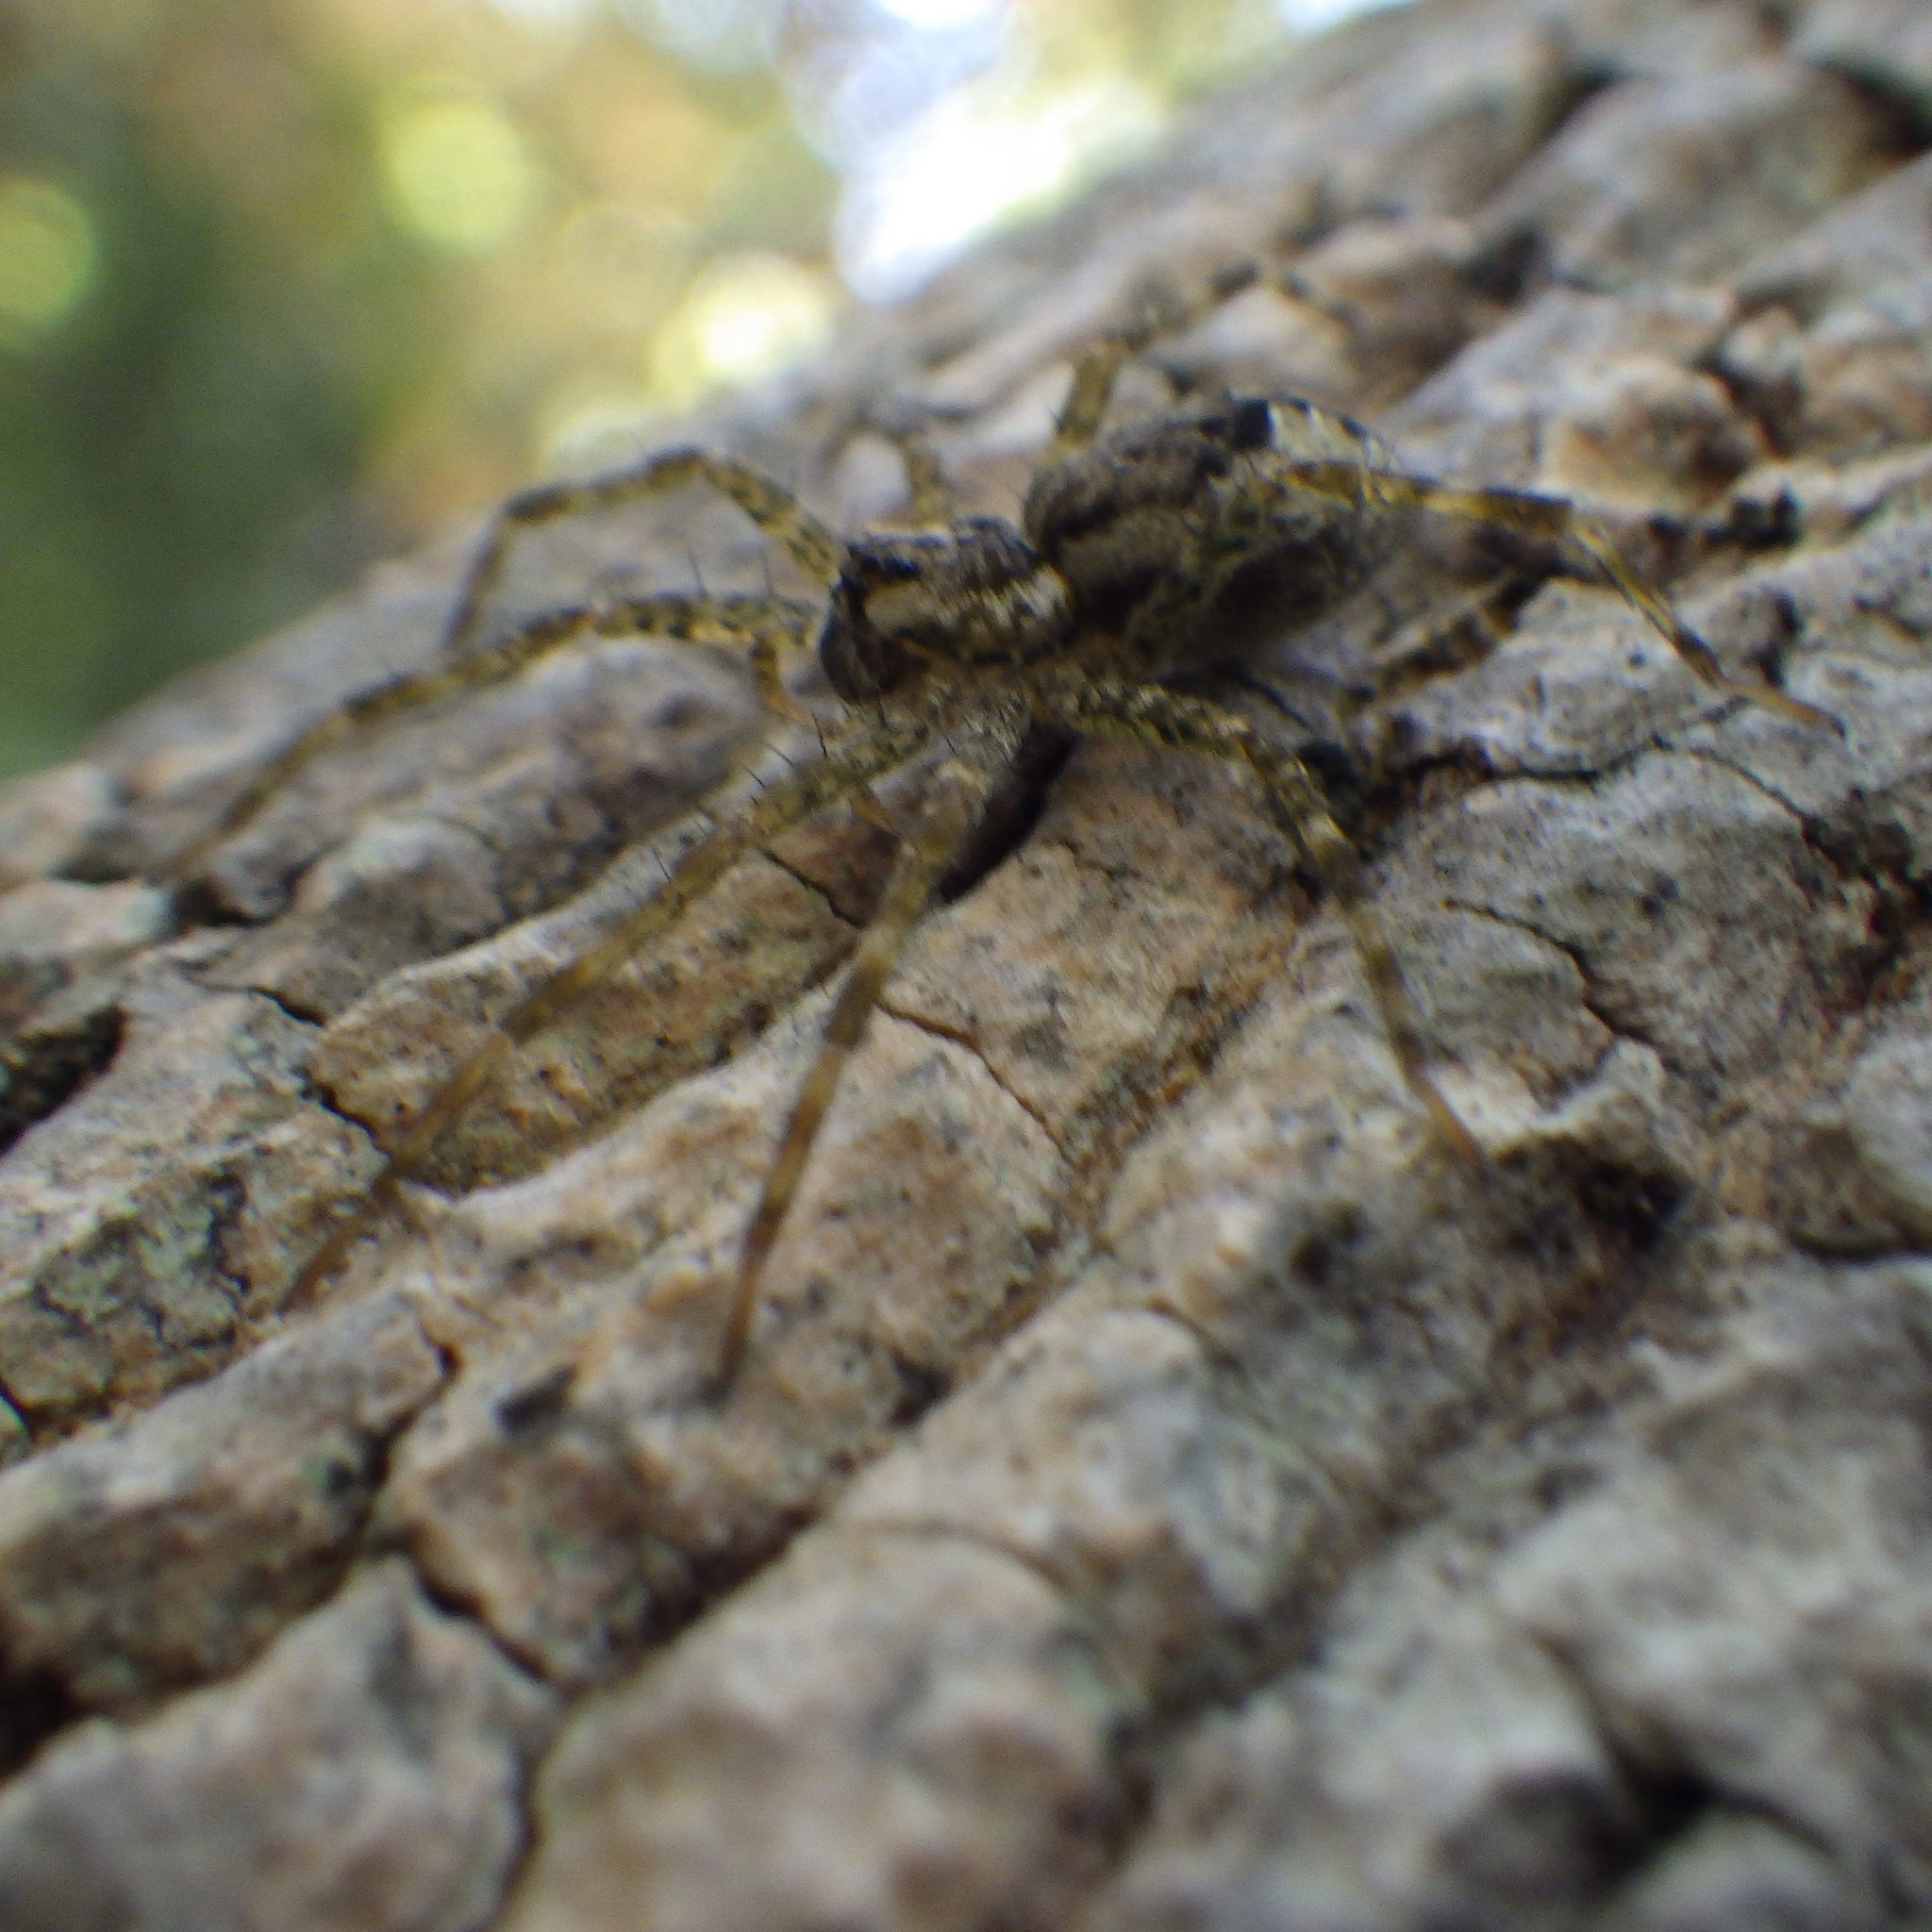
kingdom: Animalia
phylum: Arthropoda
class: Arachnida
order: Araneae
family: Pisauridae
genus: Dolomedes
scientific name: Dolomedes tenebrosus
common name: Dark fishing spider
